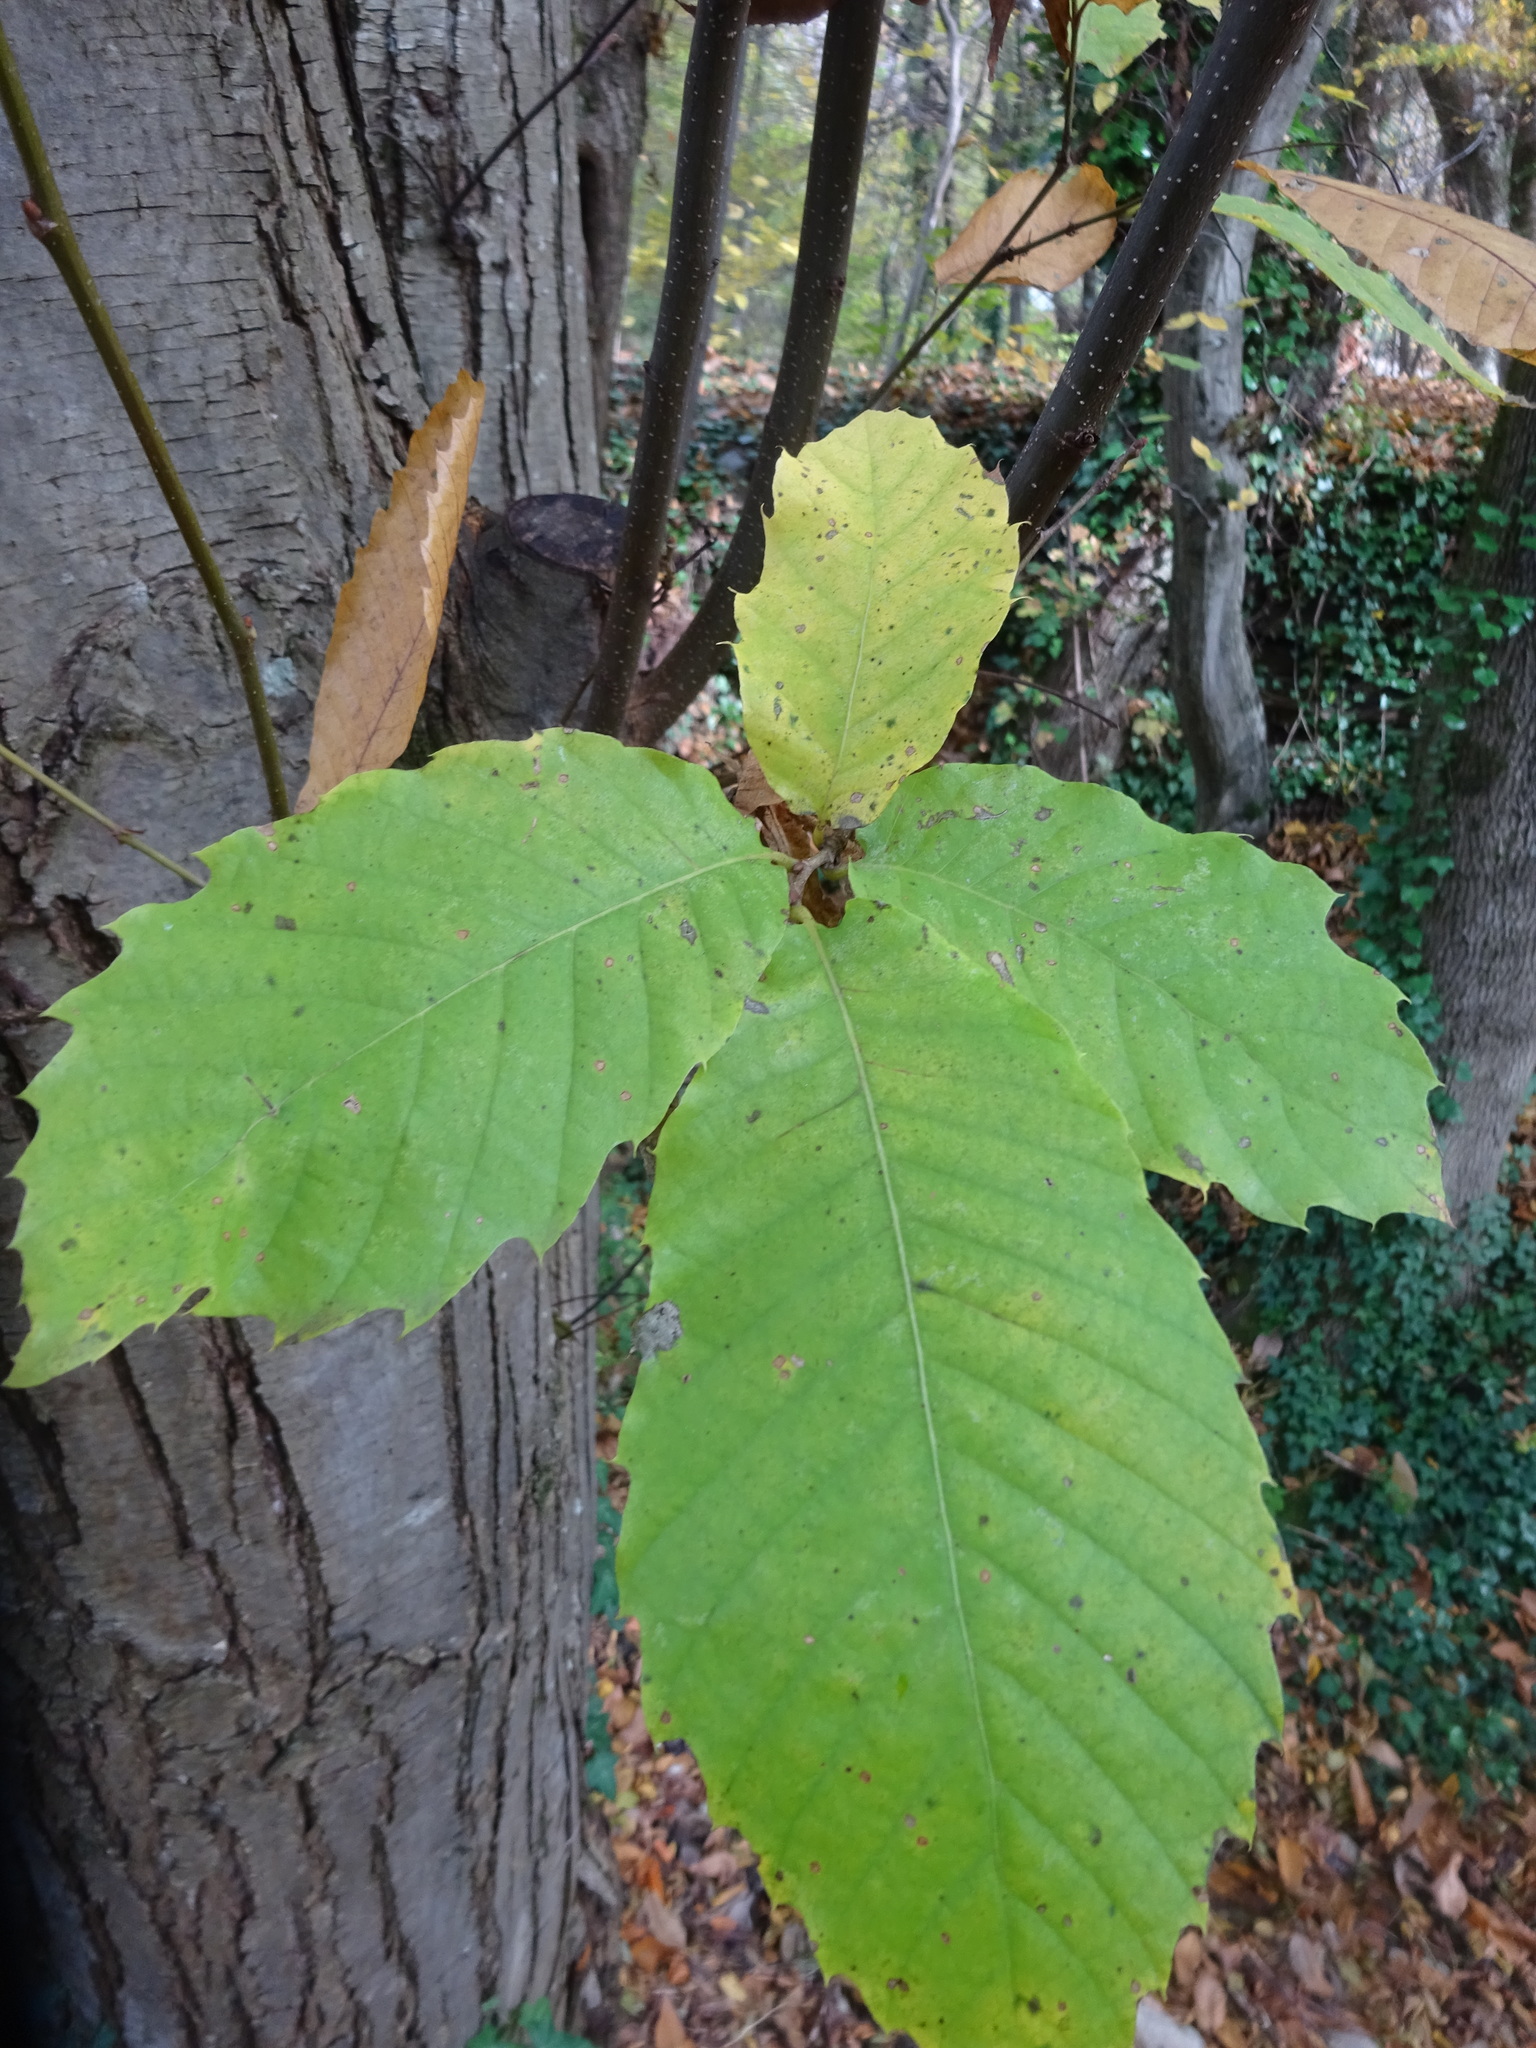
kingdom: Plantae
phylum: Tracheophyta
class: Magnoliopsida
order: Fagales
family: Fagaceae
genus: Castanea
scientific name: Castanea sativa
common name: Sweet chestnut
